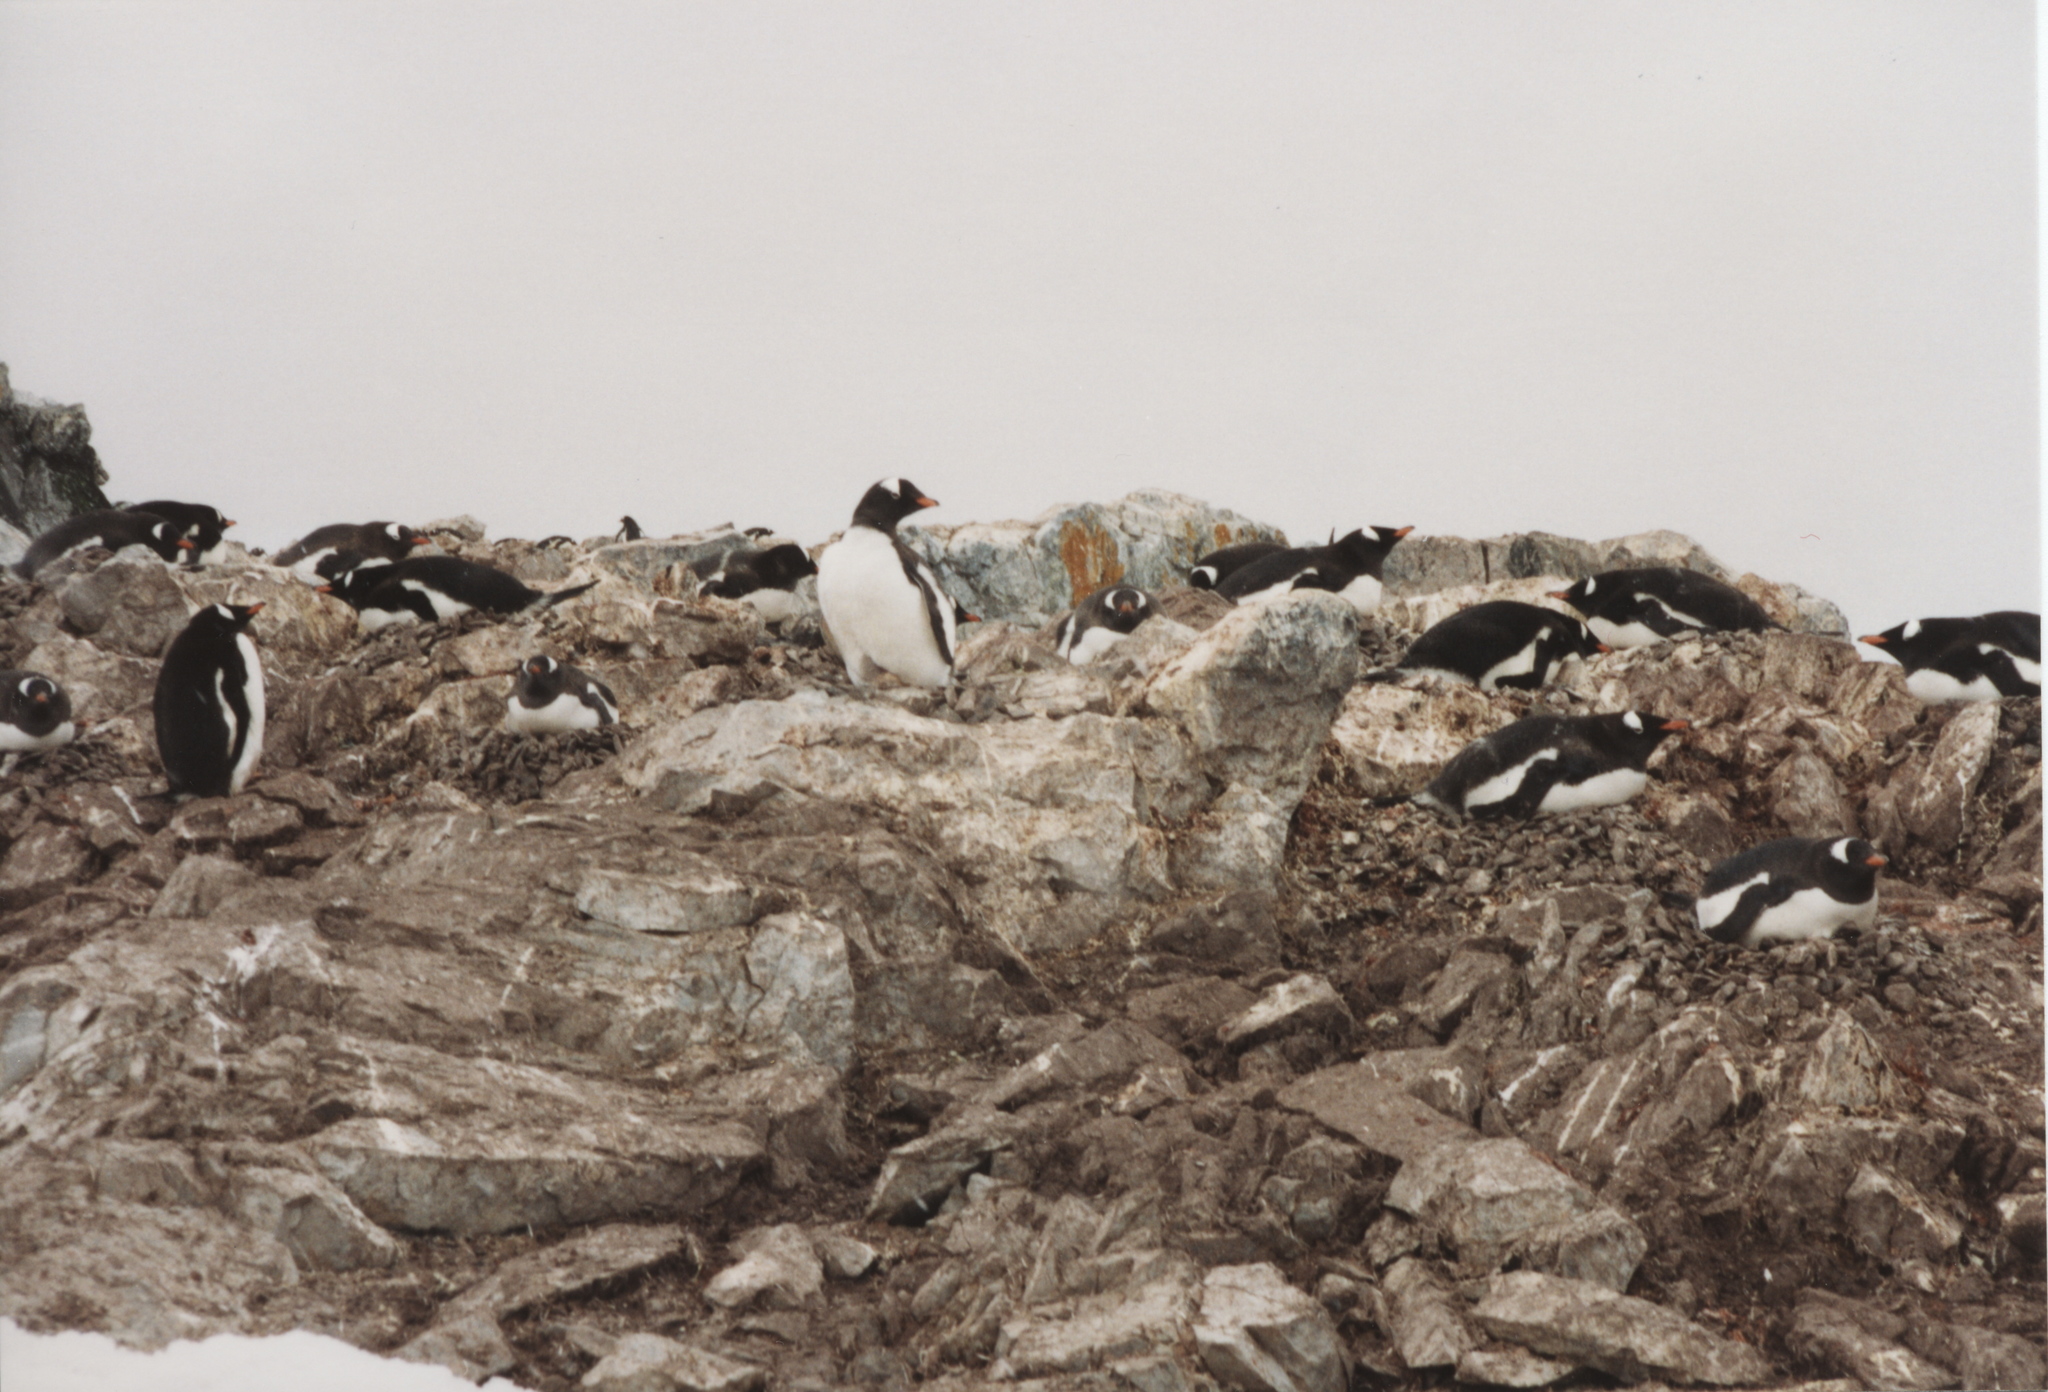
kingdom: Animalia
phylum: Chordata
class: Aves
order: Sphenisciformes
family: Spheniscidae
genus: Pygoscelis
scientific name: Pygoscelis papua
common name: Gentoo penguin
